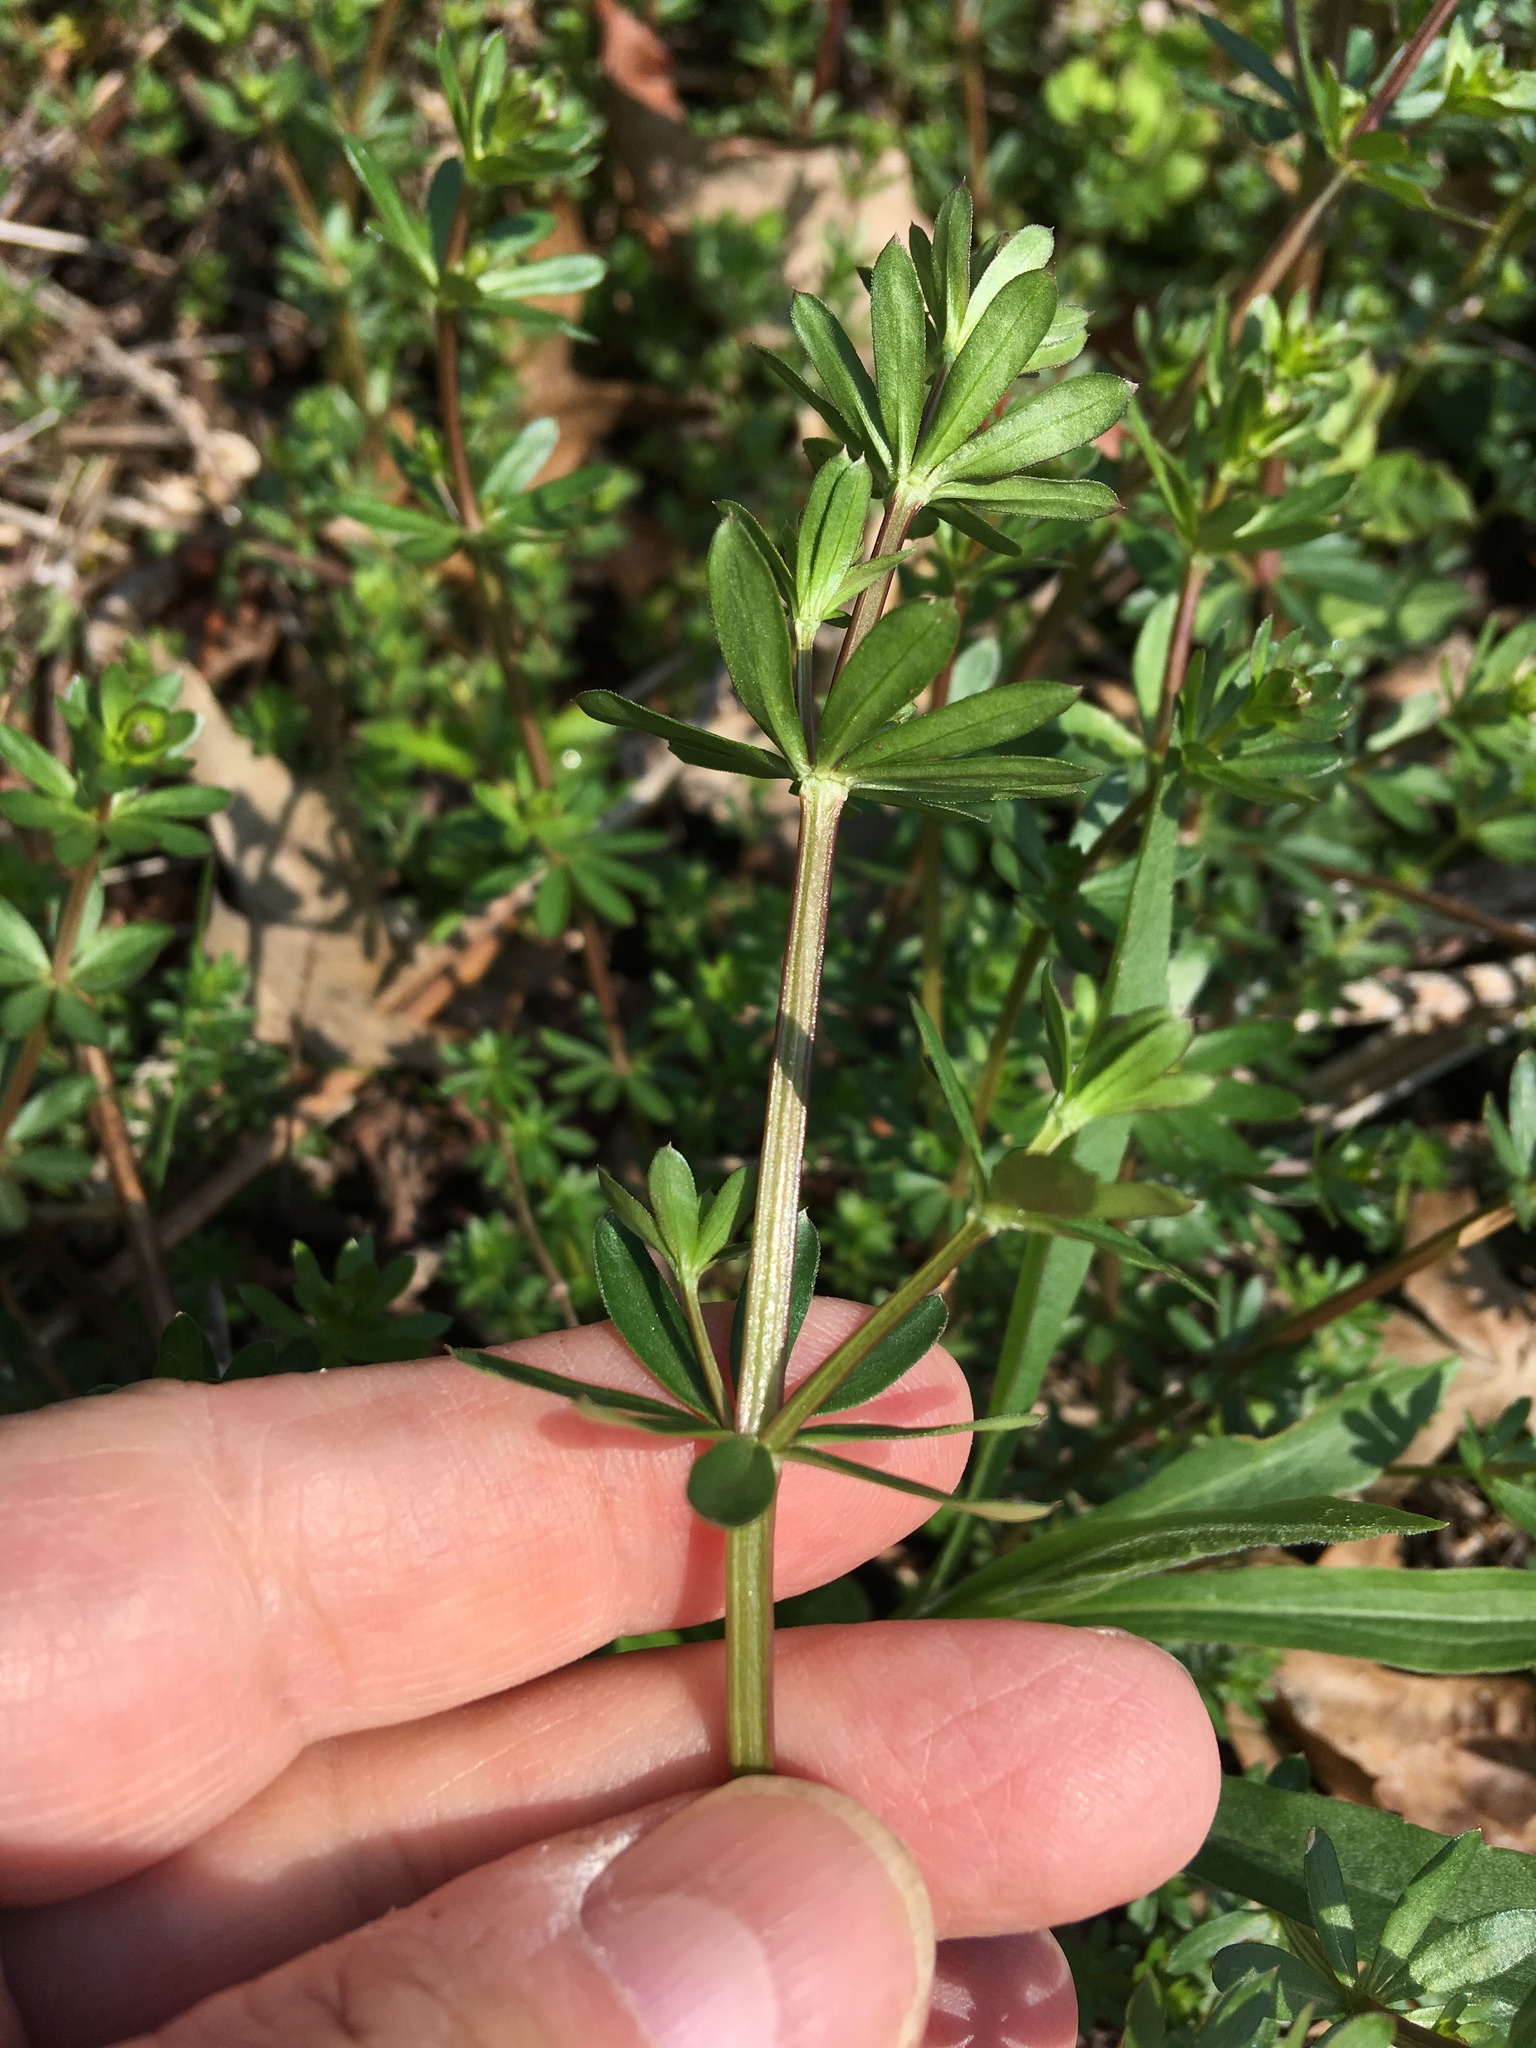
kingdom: Plantae
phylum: Tracheophyta
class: Magnoliopsida
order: Gentianales
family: Rubiaceae
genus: Galium
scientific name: Galium mollugo
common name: Hedge bedstraw
